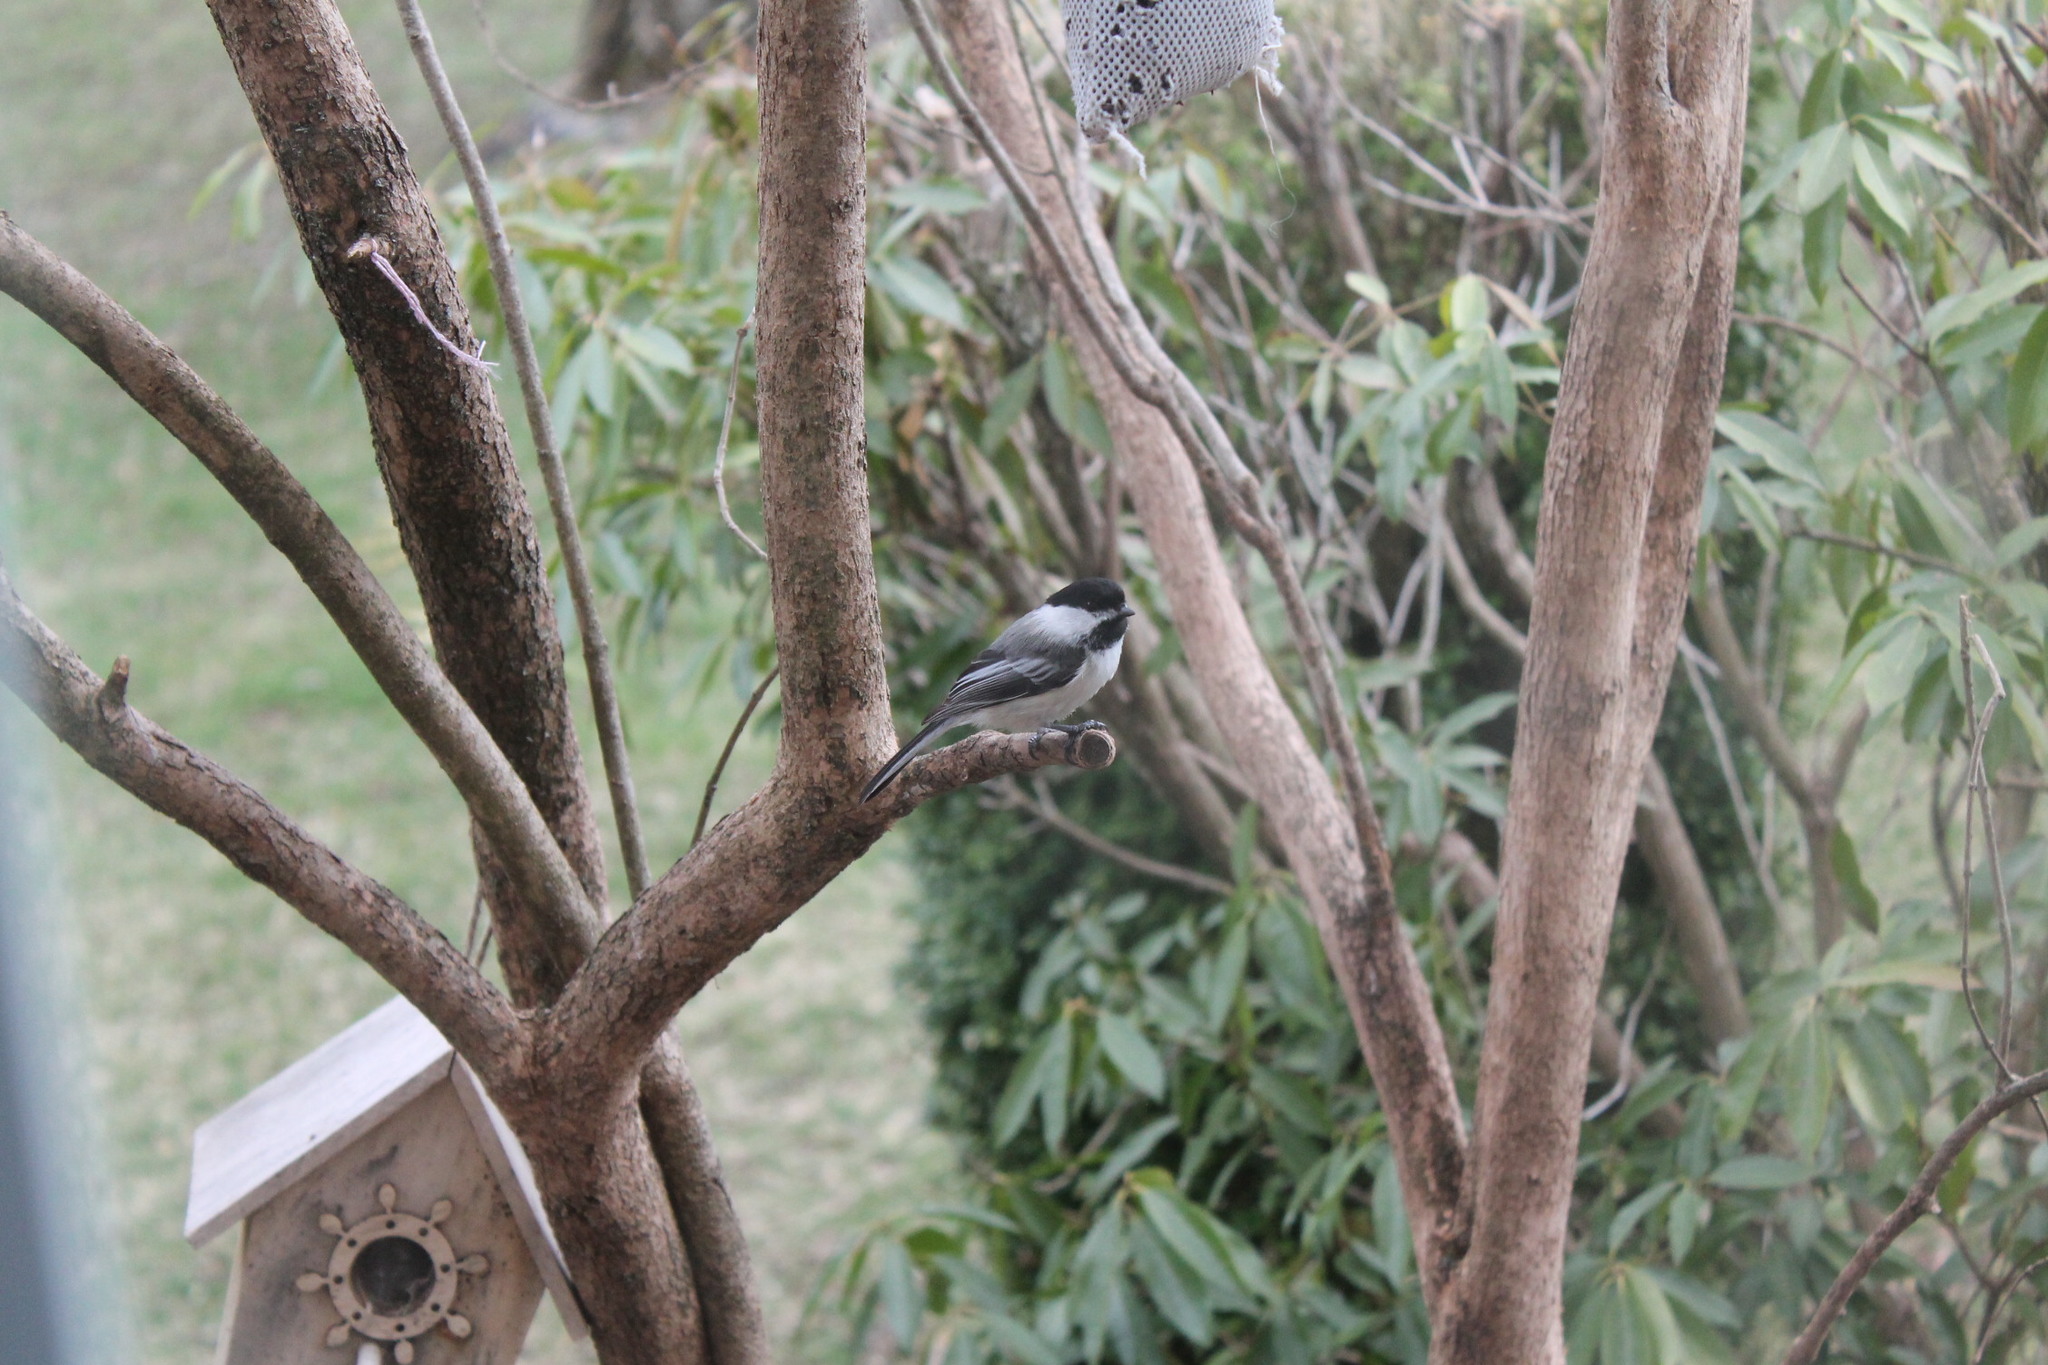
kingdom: Animalia
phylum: Chordata
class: Aves
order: Passeriformes
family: Paridae
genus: Poecile
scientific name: Poecile atricapillus
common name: Black-capped chickadee
